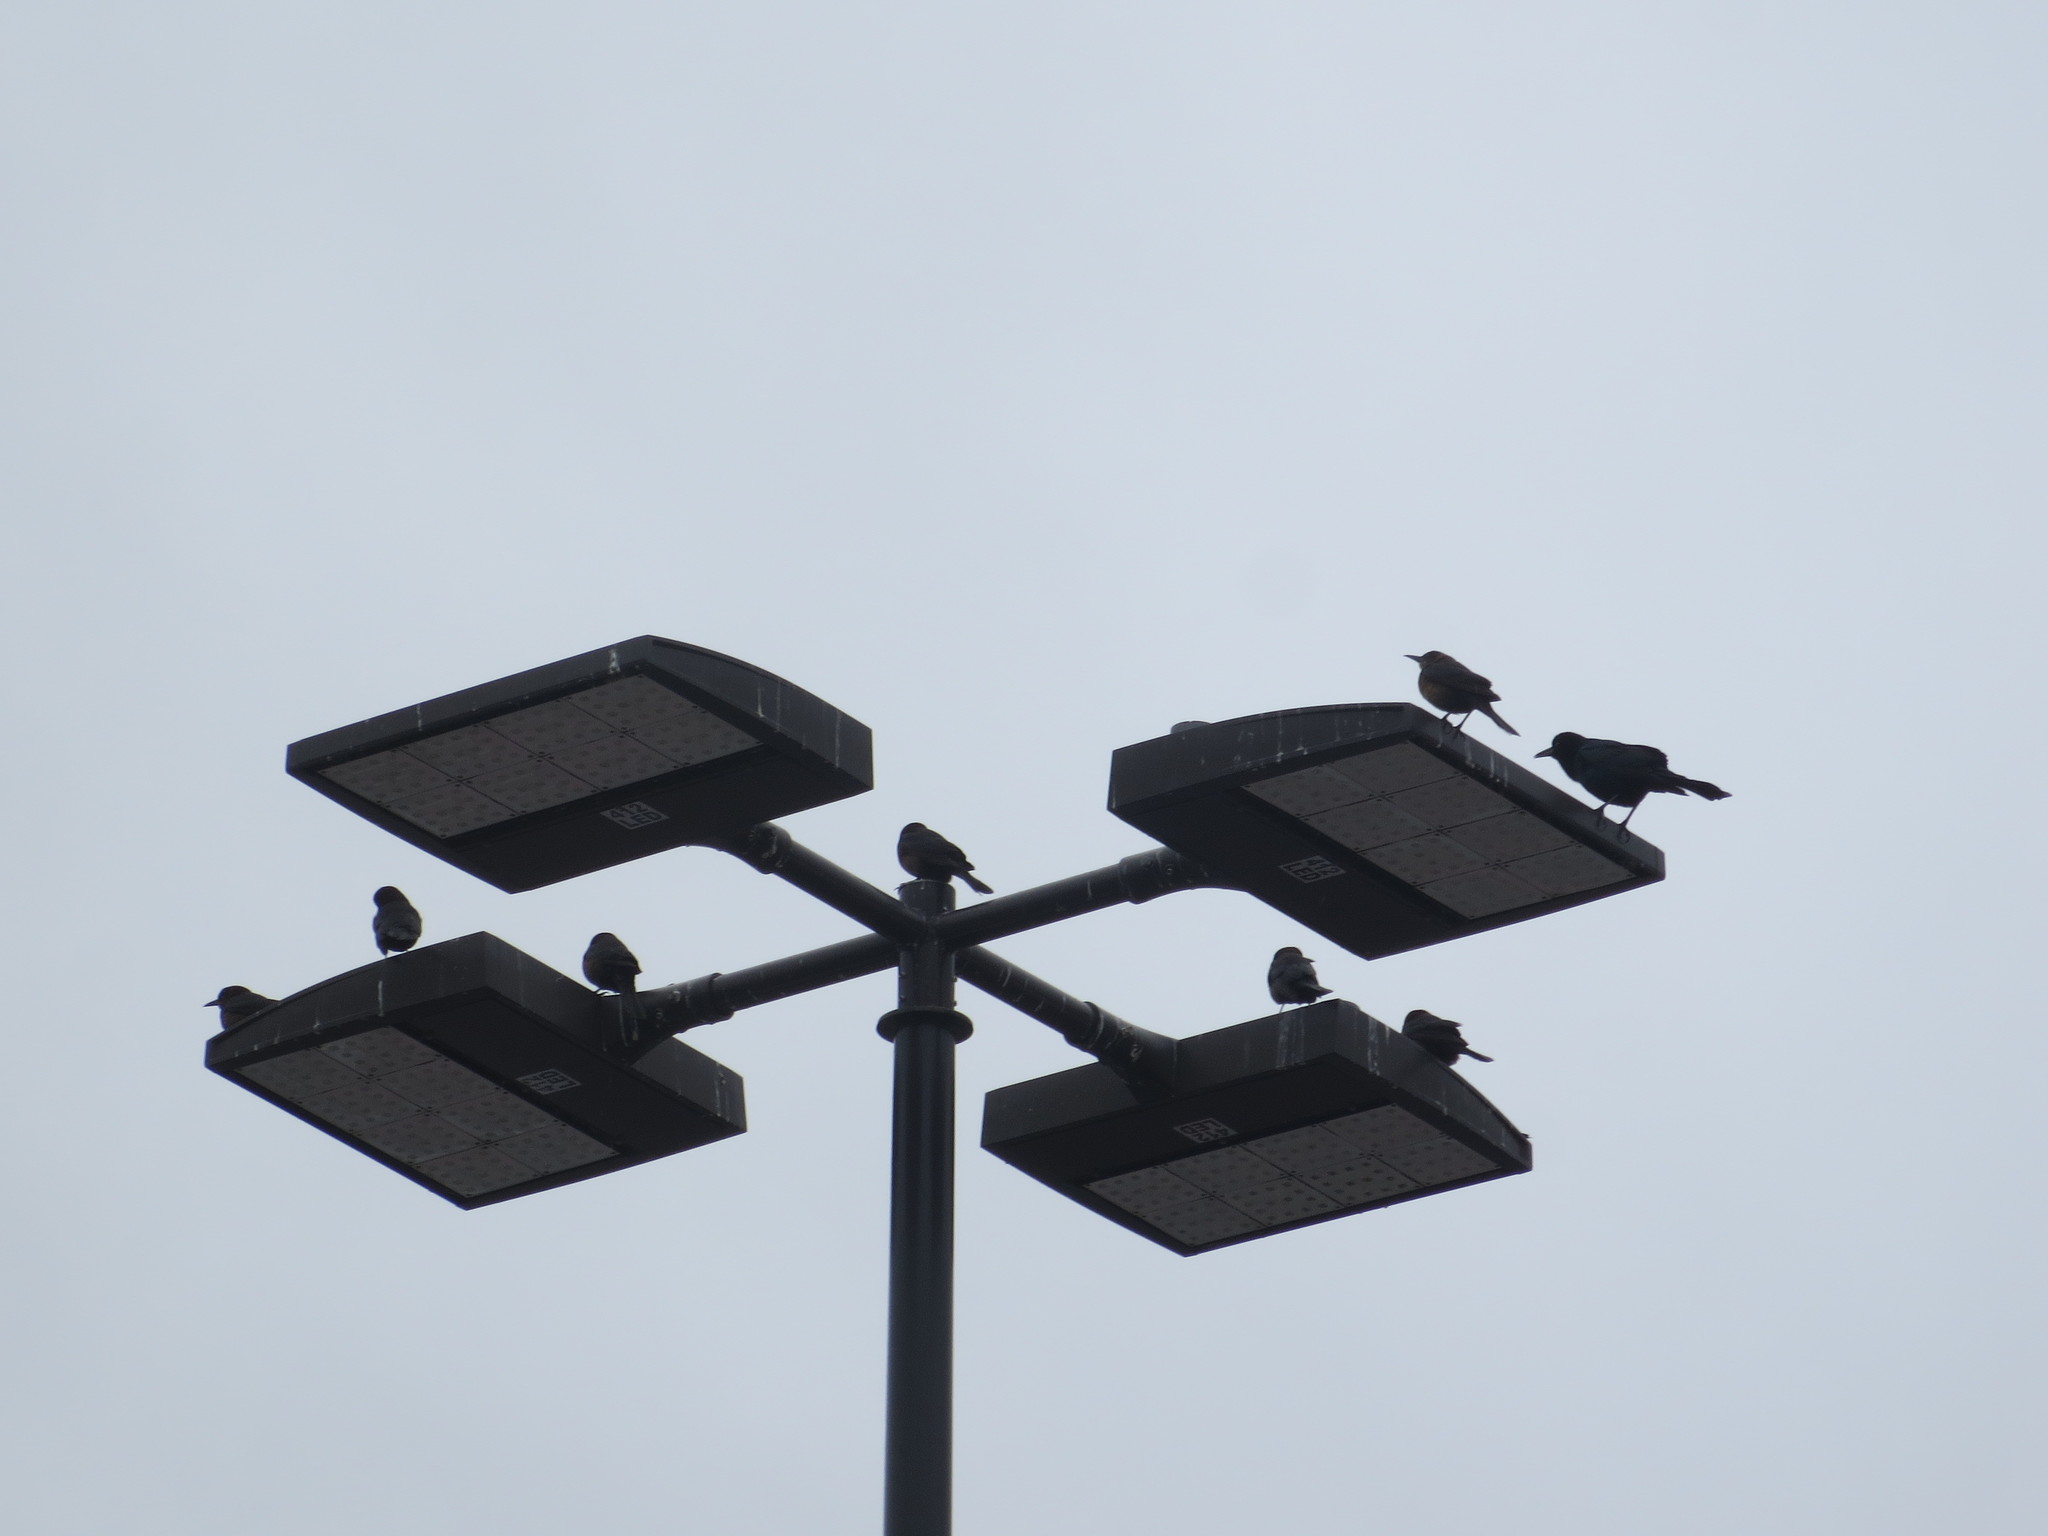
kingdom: Animalia
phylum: Chordata
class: Aves
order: Passeriformes
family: Icteridae
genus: Quiscalus
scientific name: Quiscalus major
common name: Boat-tailed grackle
